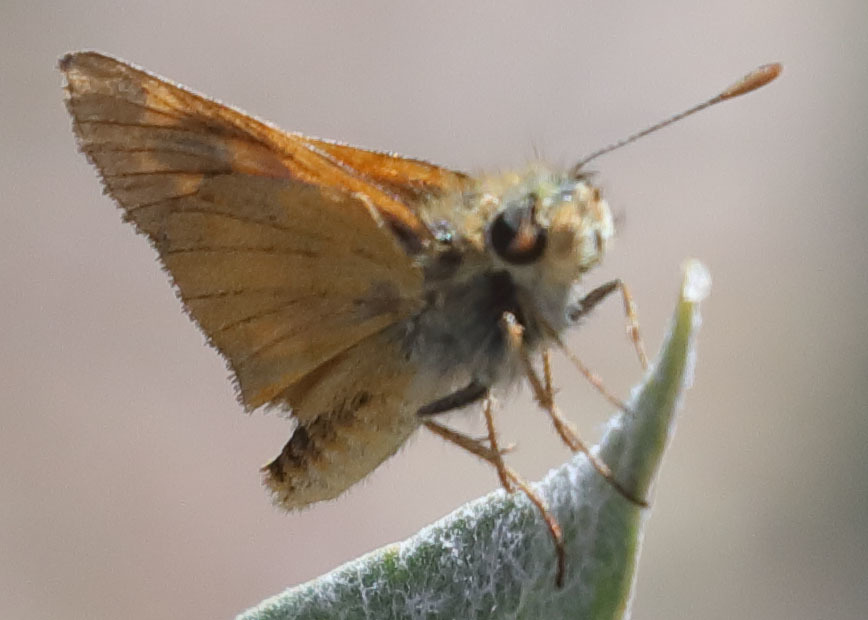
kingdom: Animalia
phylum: Arthropoda
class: Insecta
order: Lepidoptera
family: Hesperiidae
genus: Ochlodes
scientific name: Ochlodes agricola
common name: Rural skipper
